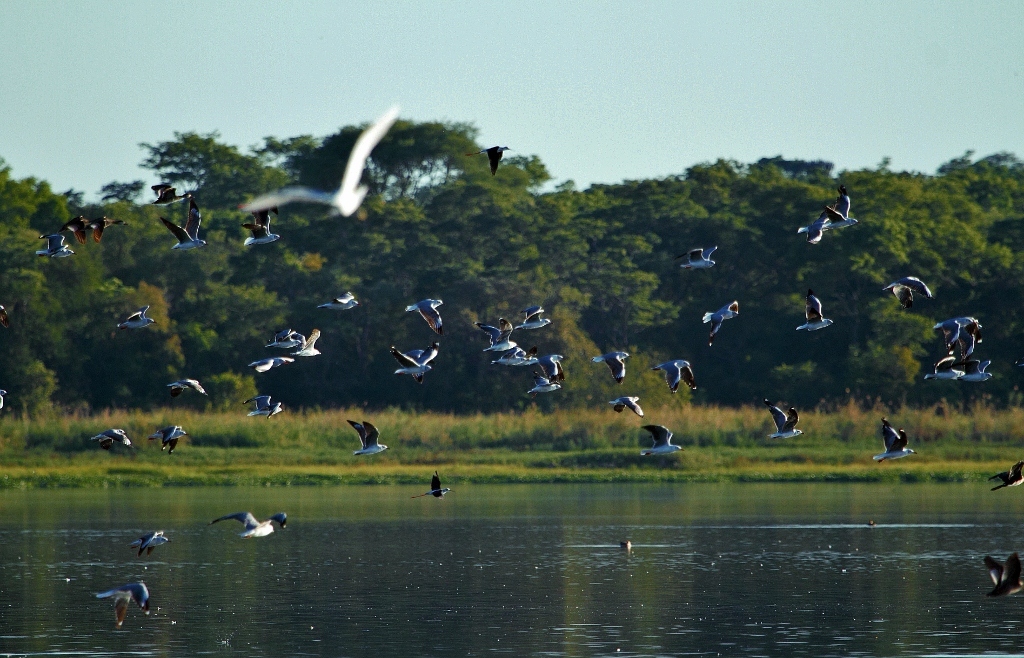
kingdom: Animalia
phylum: Chordata
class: Aves
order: Charadriiformes
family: Laridae
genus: Chroicocephalus
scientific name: Chroicocephalus cirrocephalus
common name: Grey-headed gull
